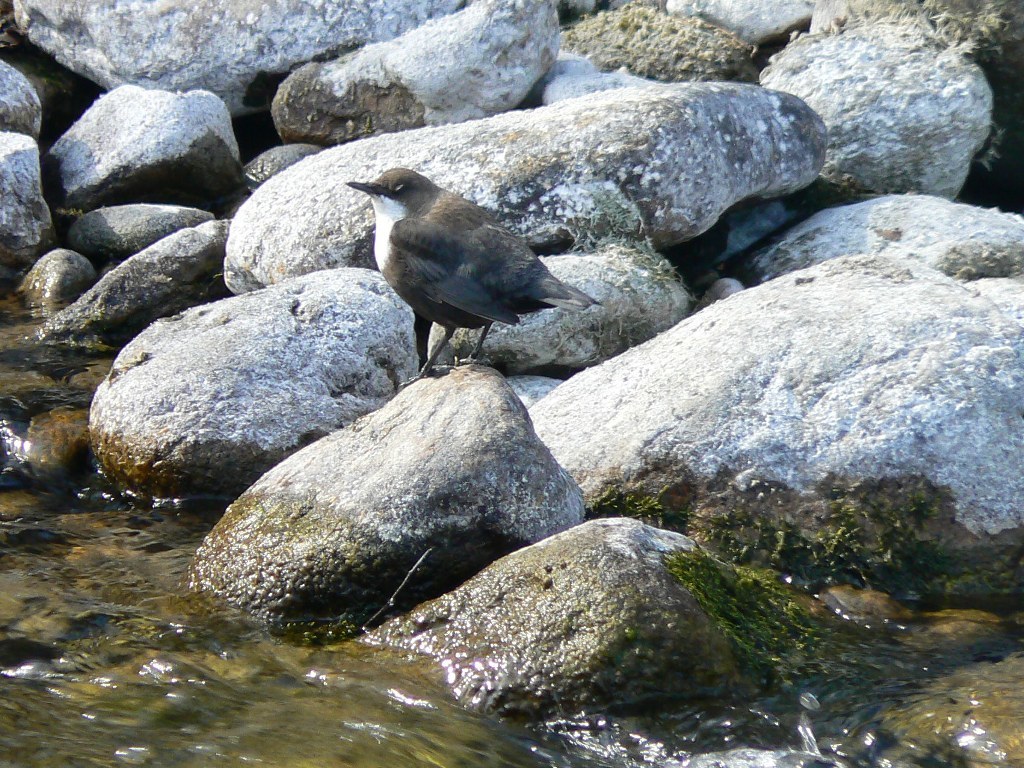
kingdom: Animalia
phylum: Chordata
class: Aves
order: Passeriformes
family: Cinclidae
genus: Cinclus
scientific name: Cinclus cinclus
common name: White-throated dipper
